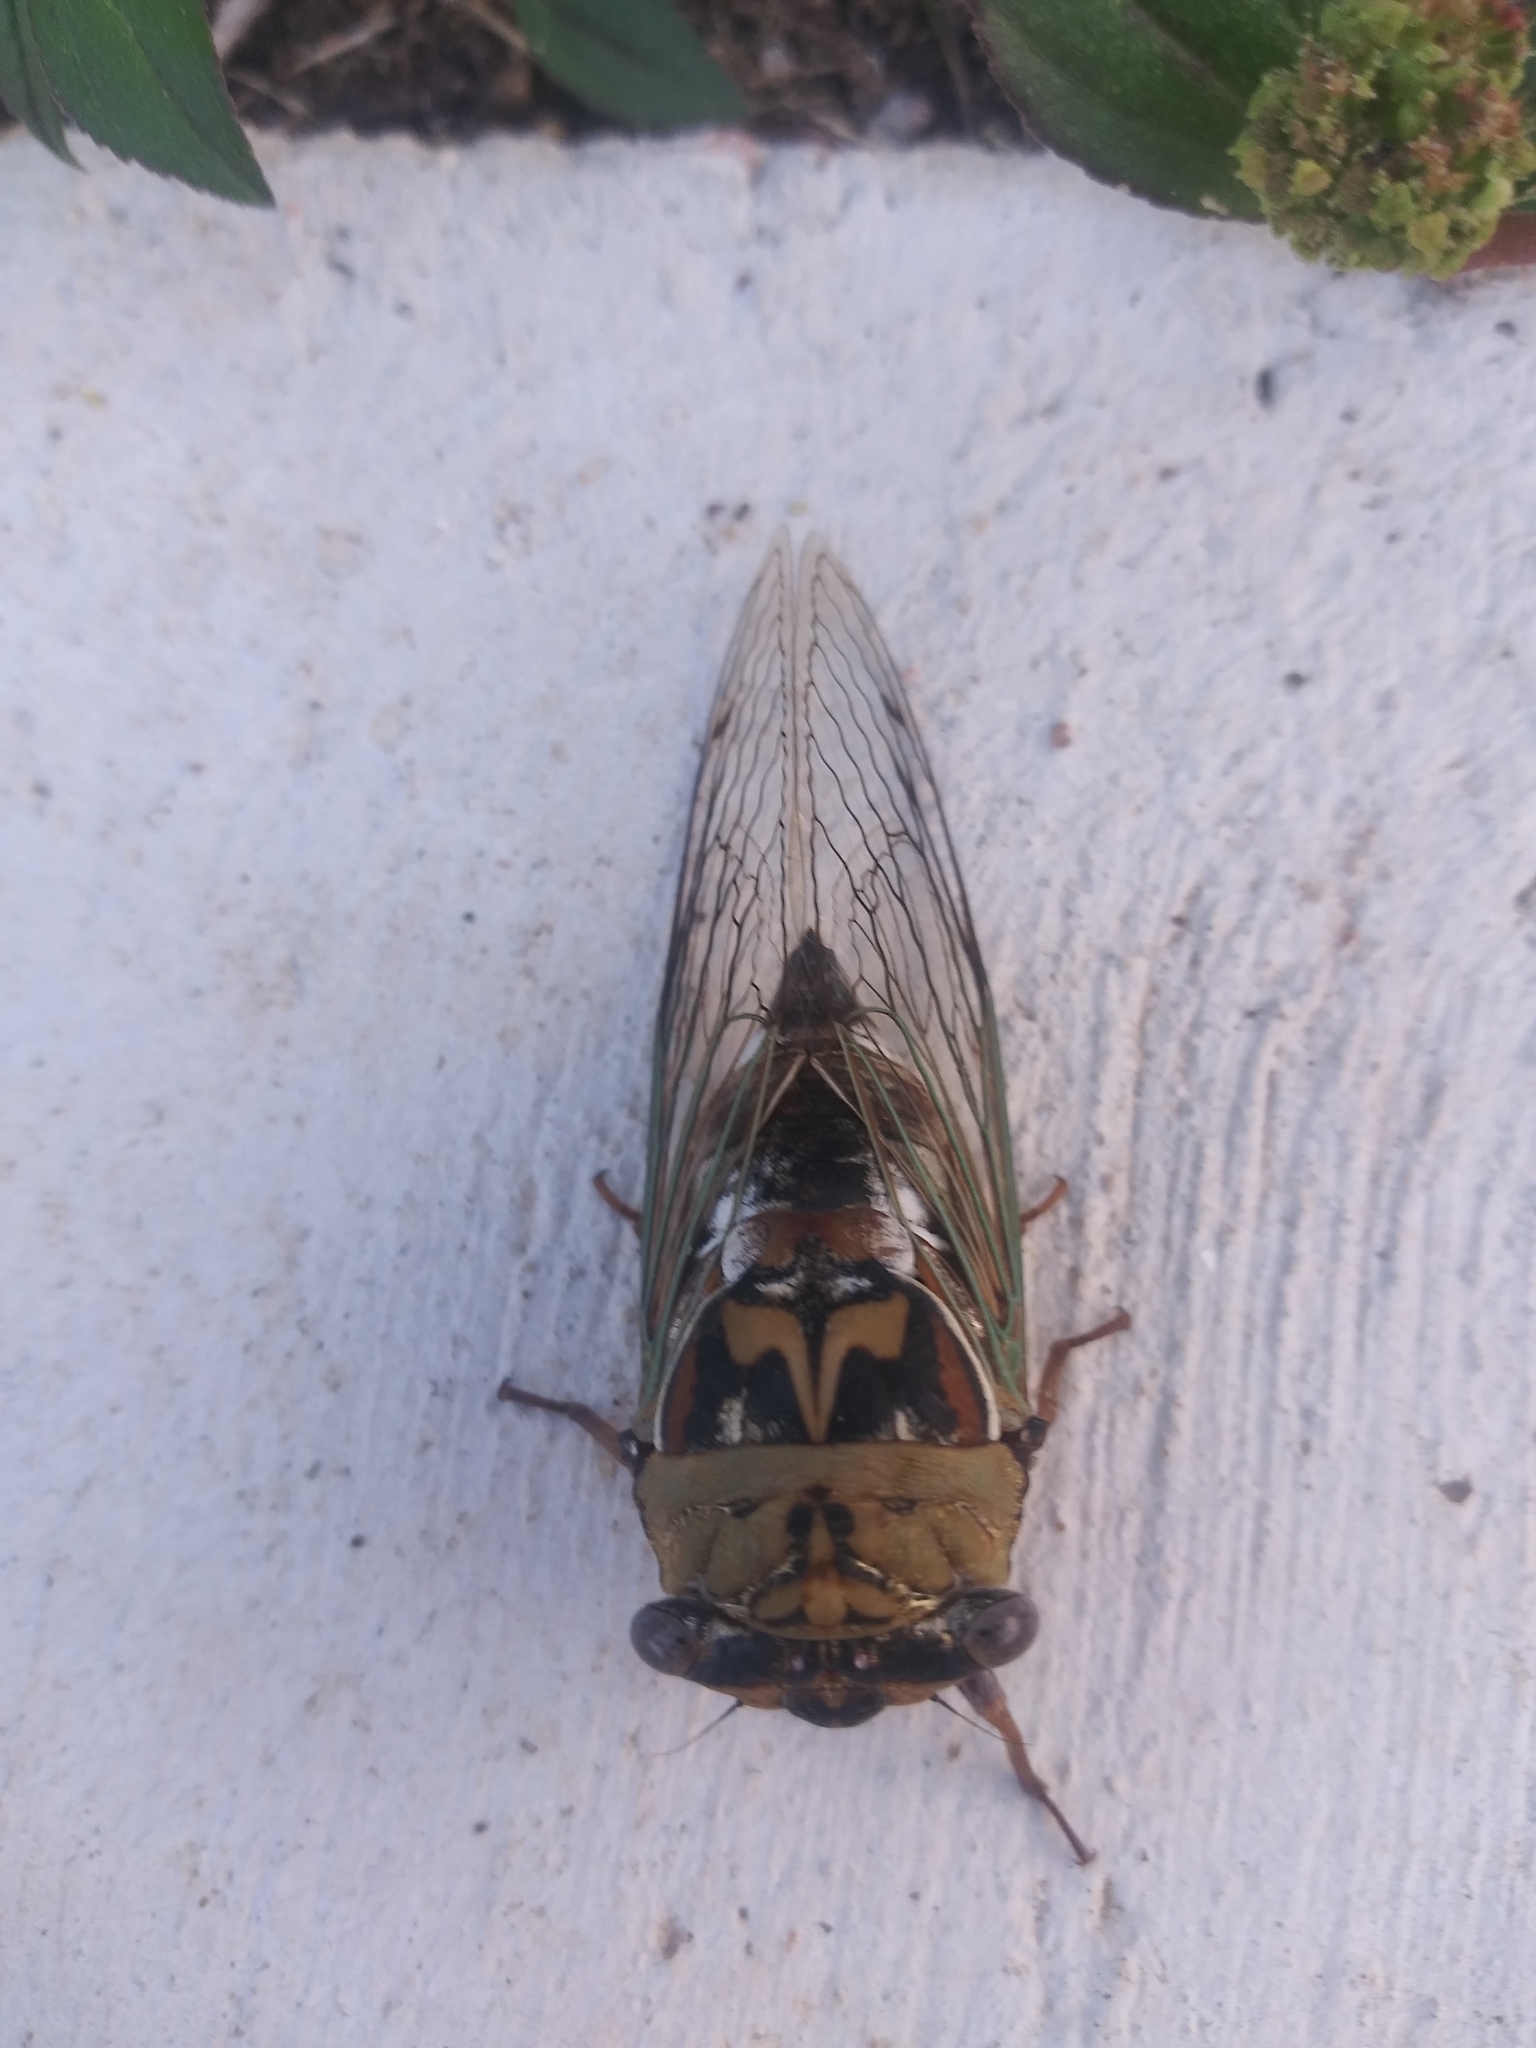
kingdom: Animalia
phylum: Arthropoda
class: Insecta
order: Hemiptera
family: Cicadidae
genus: Megatibicen
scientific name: Megatibicen resh
